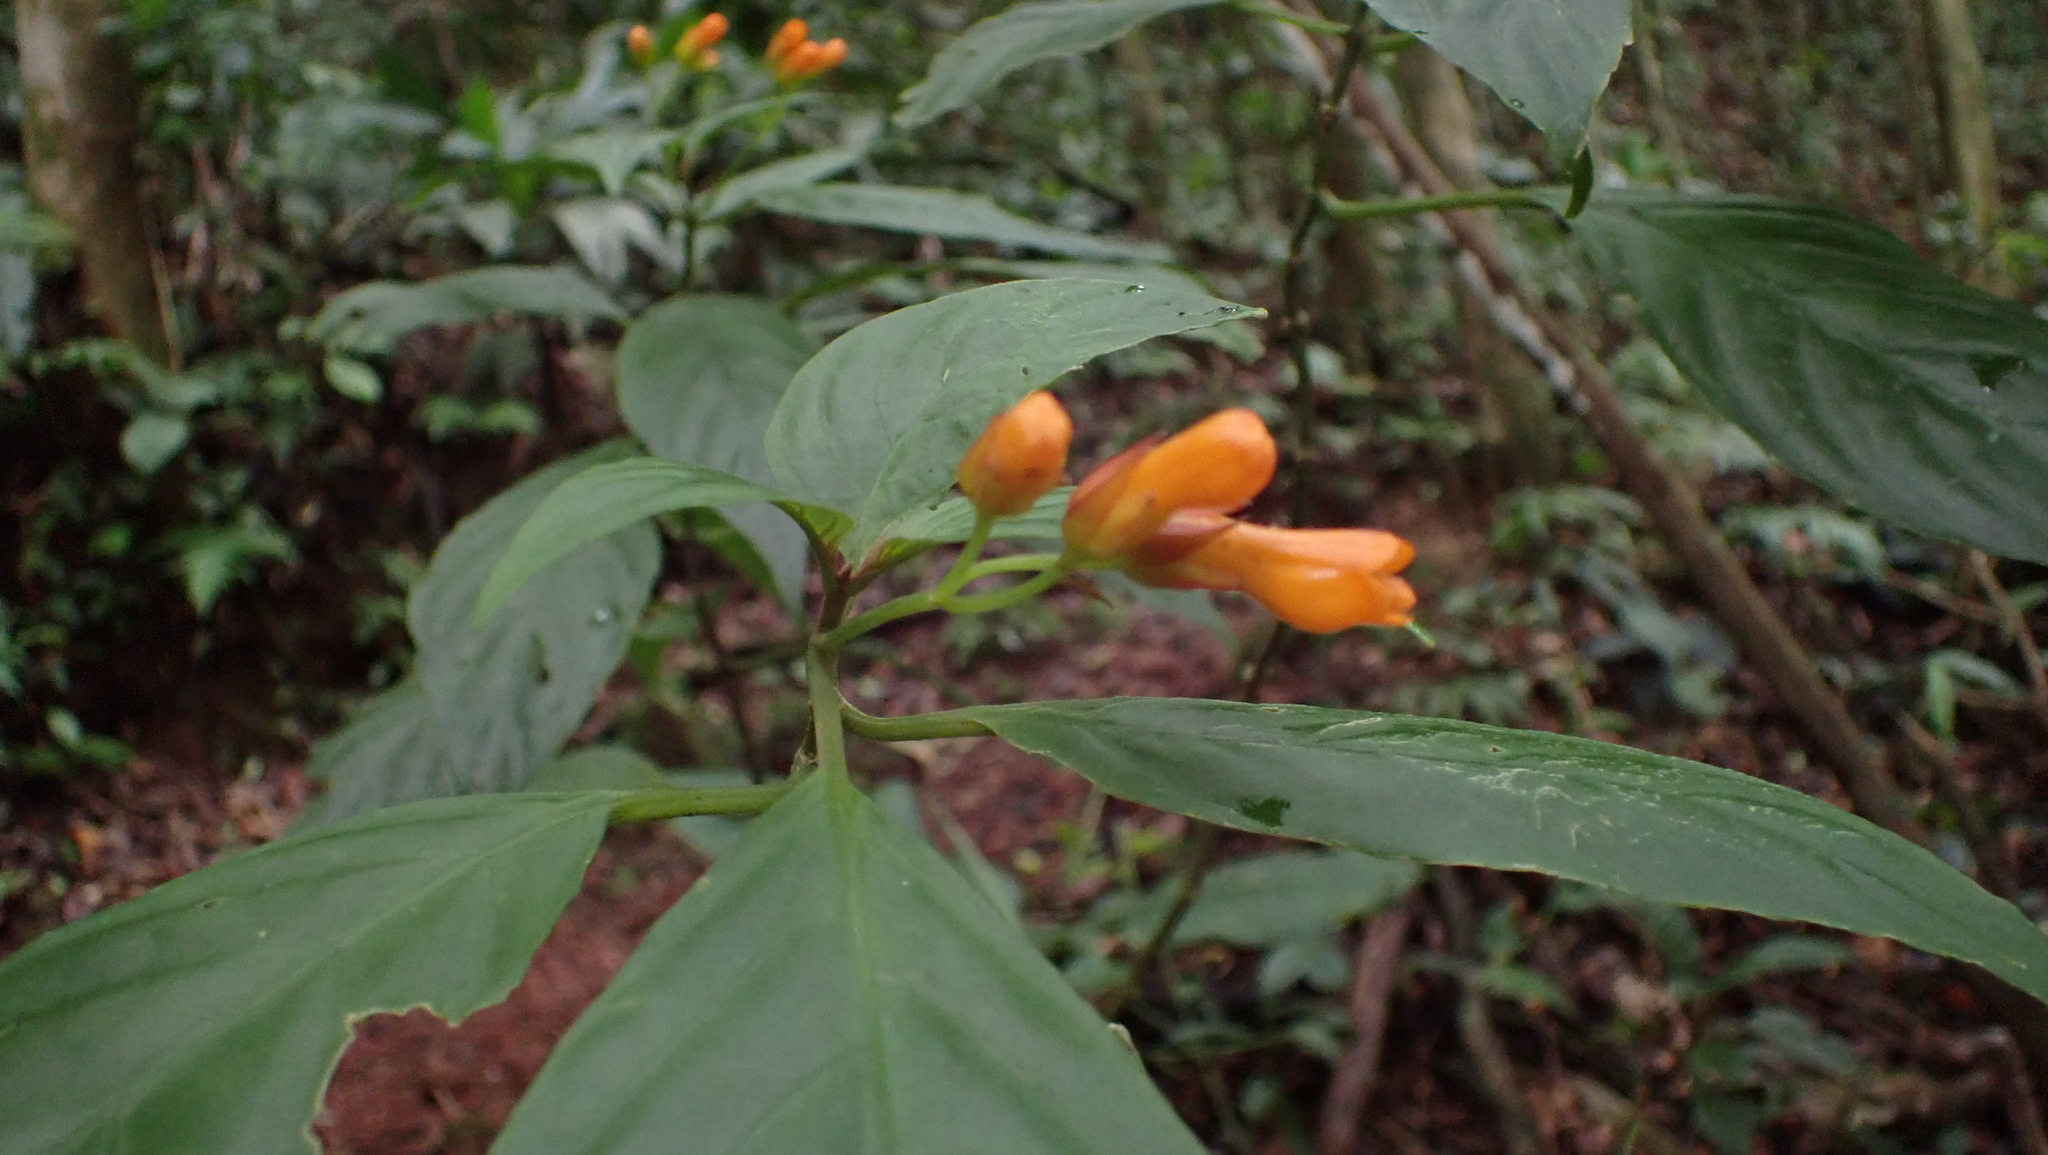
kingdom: Plantae
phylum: Tracheophyta
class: Magnoliopsida
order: Lamiales
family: Gesneriaceae
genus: Besleria
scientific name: Besleria laxiflora
